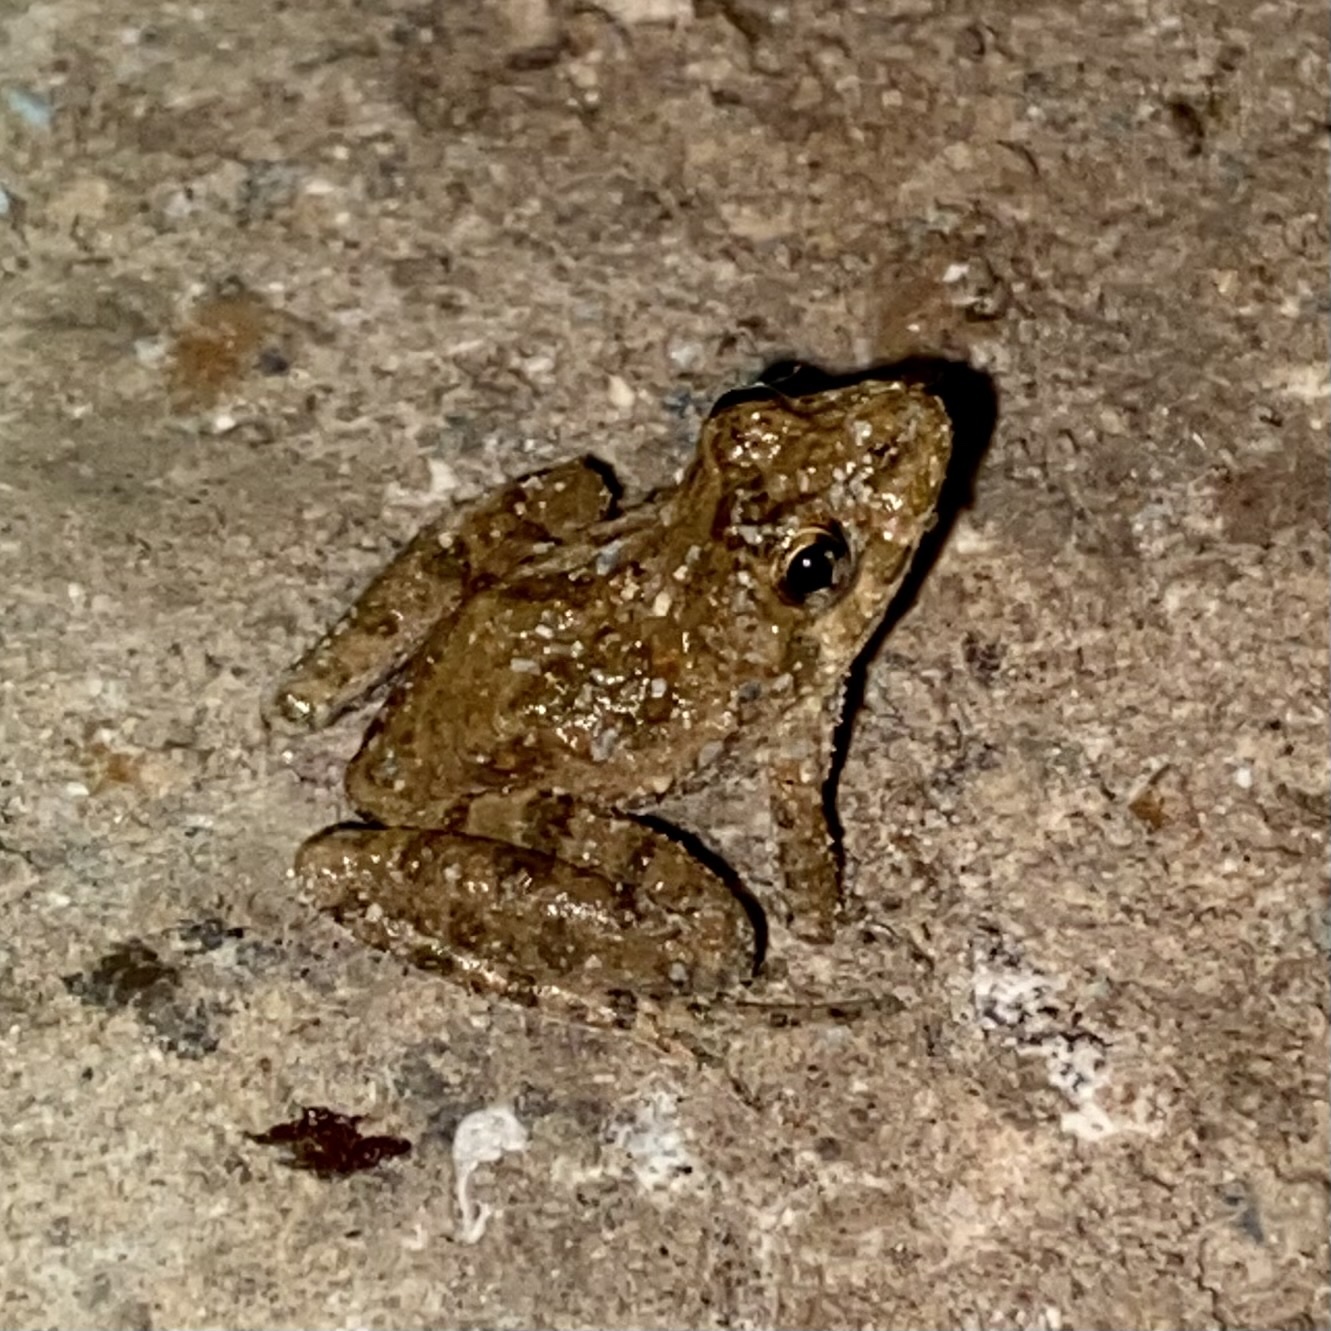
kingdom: Animalia
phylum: Chordata
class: Amphibia
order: Anura
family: Hylidae
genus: Acris
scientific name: Acris blanchardi
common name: Blanchard's cricket frog
